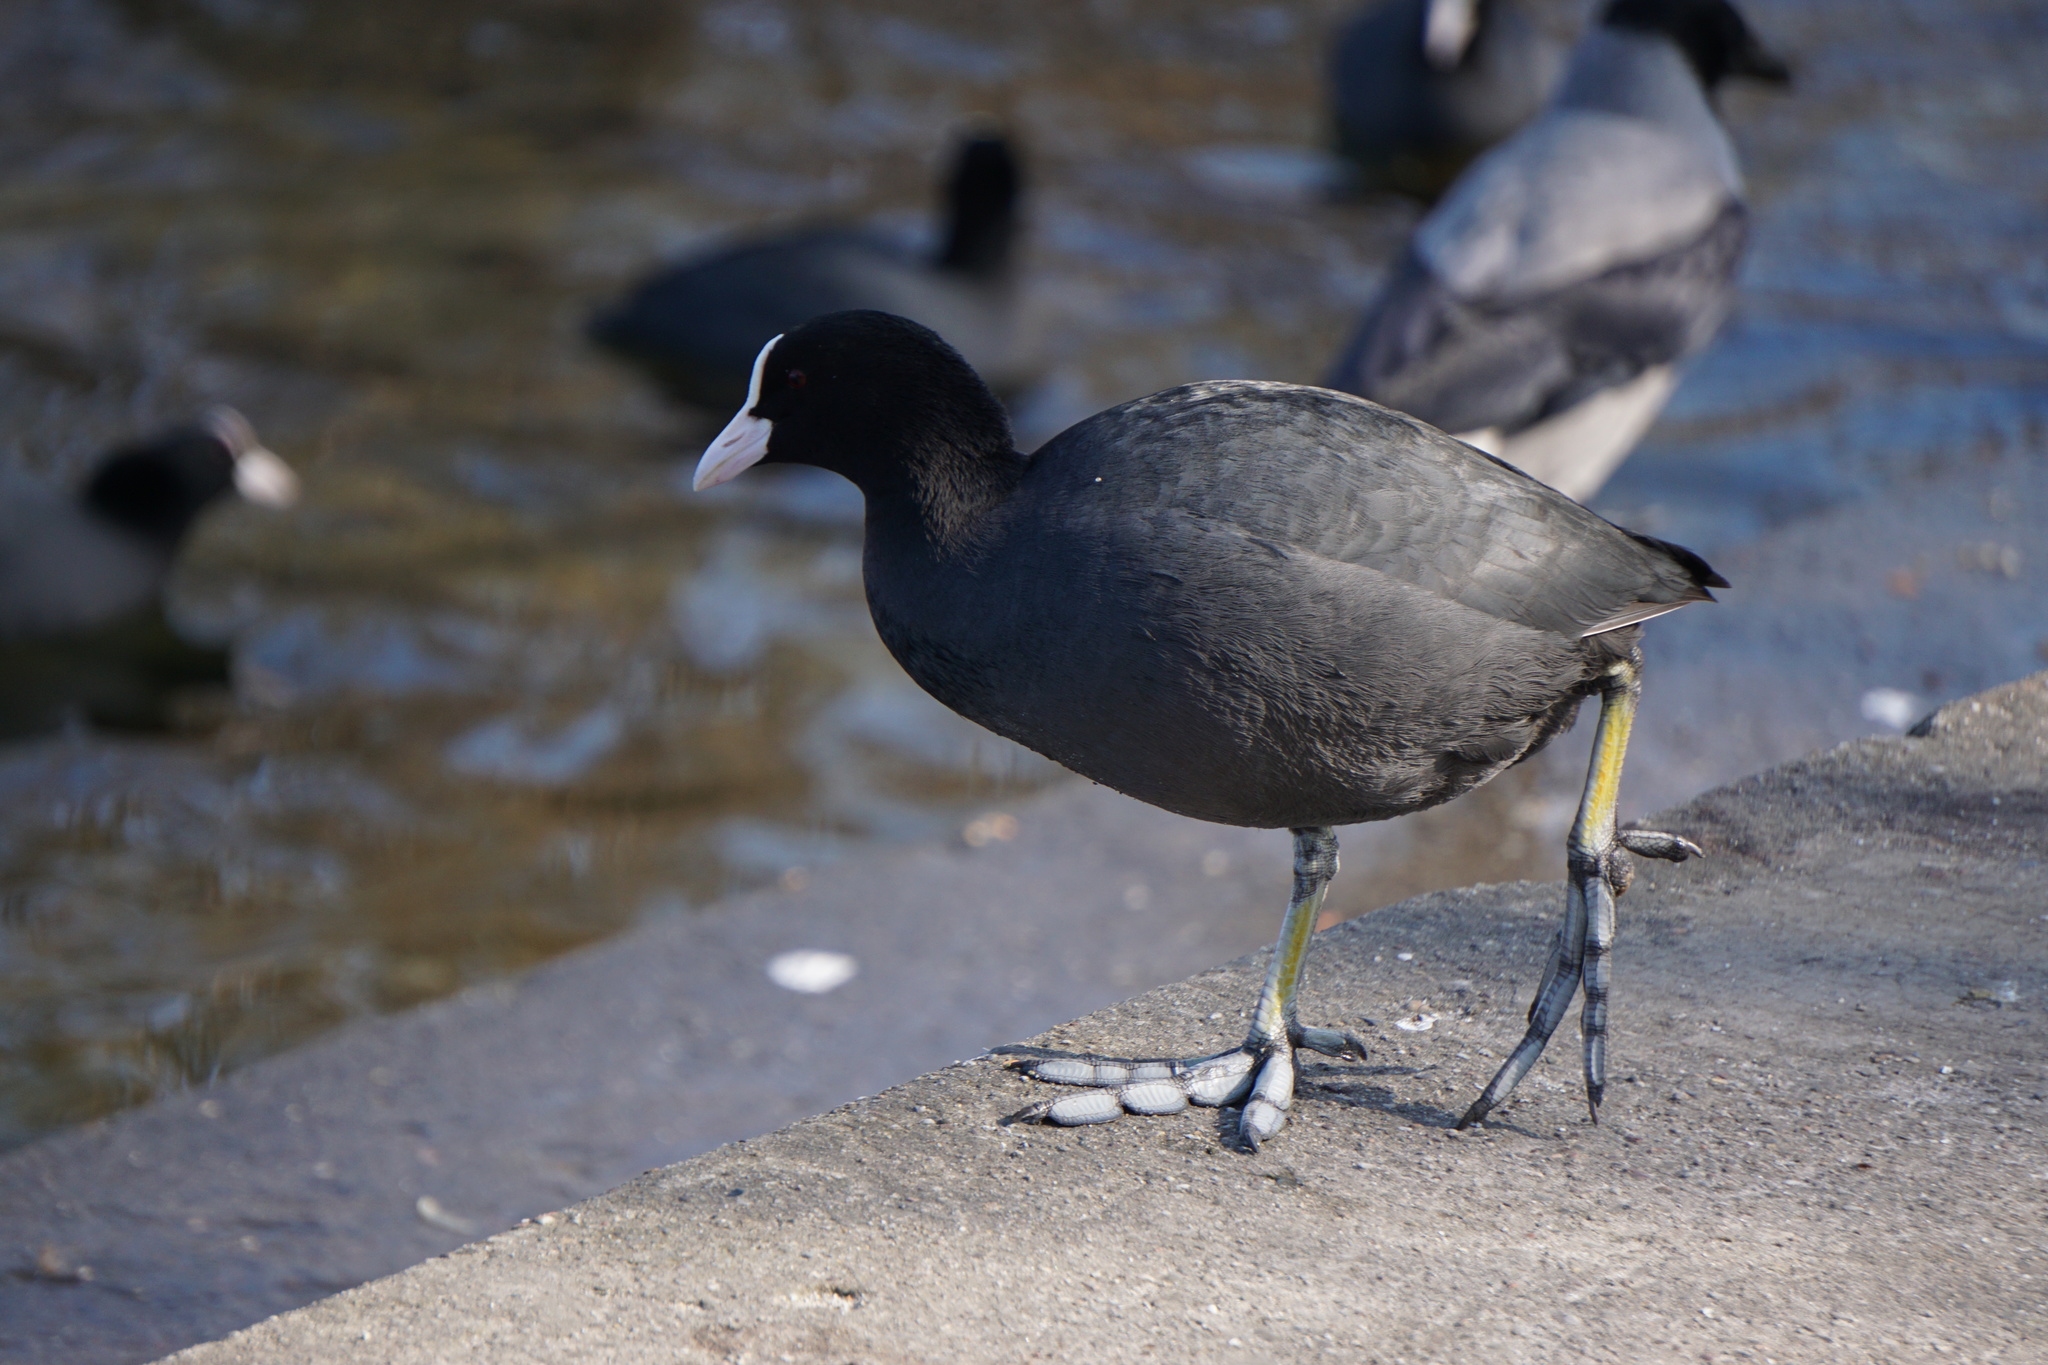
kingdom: Animalia
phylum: Chordata
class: Aves
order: Gruiformes
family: Rallidae
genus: Fulica
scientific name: Fulica atra
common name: Eurasian coot
